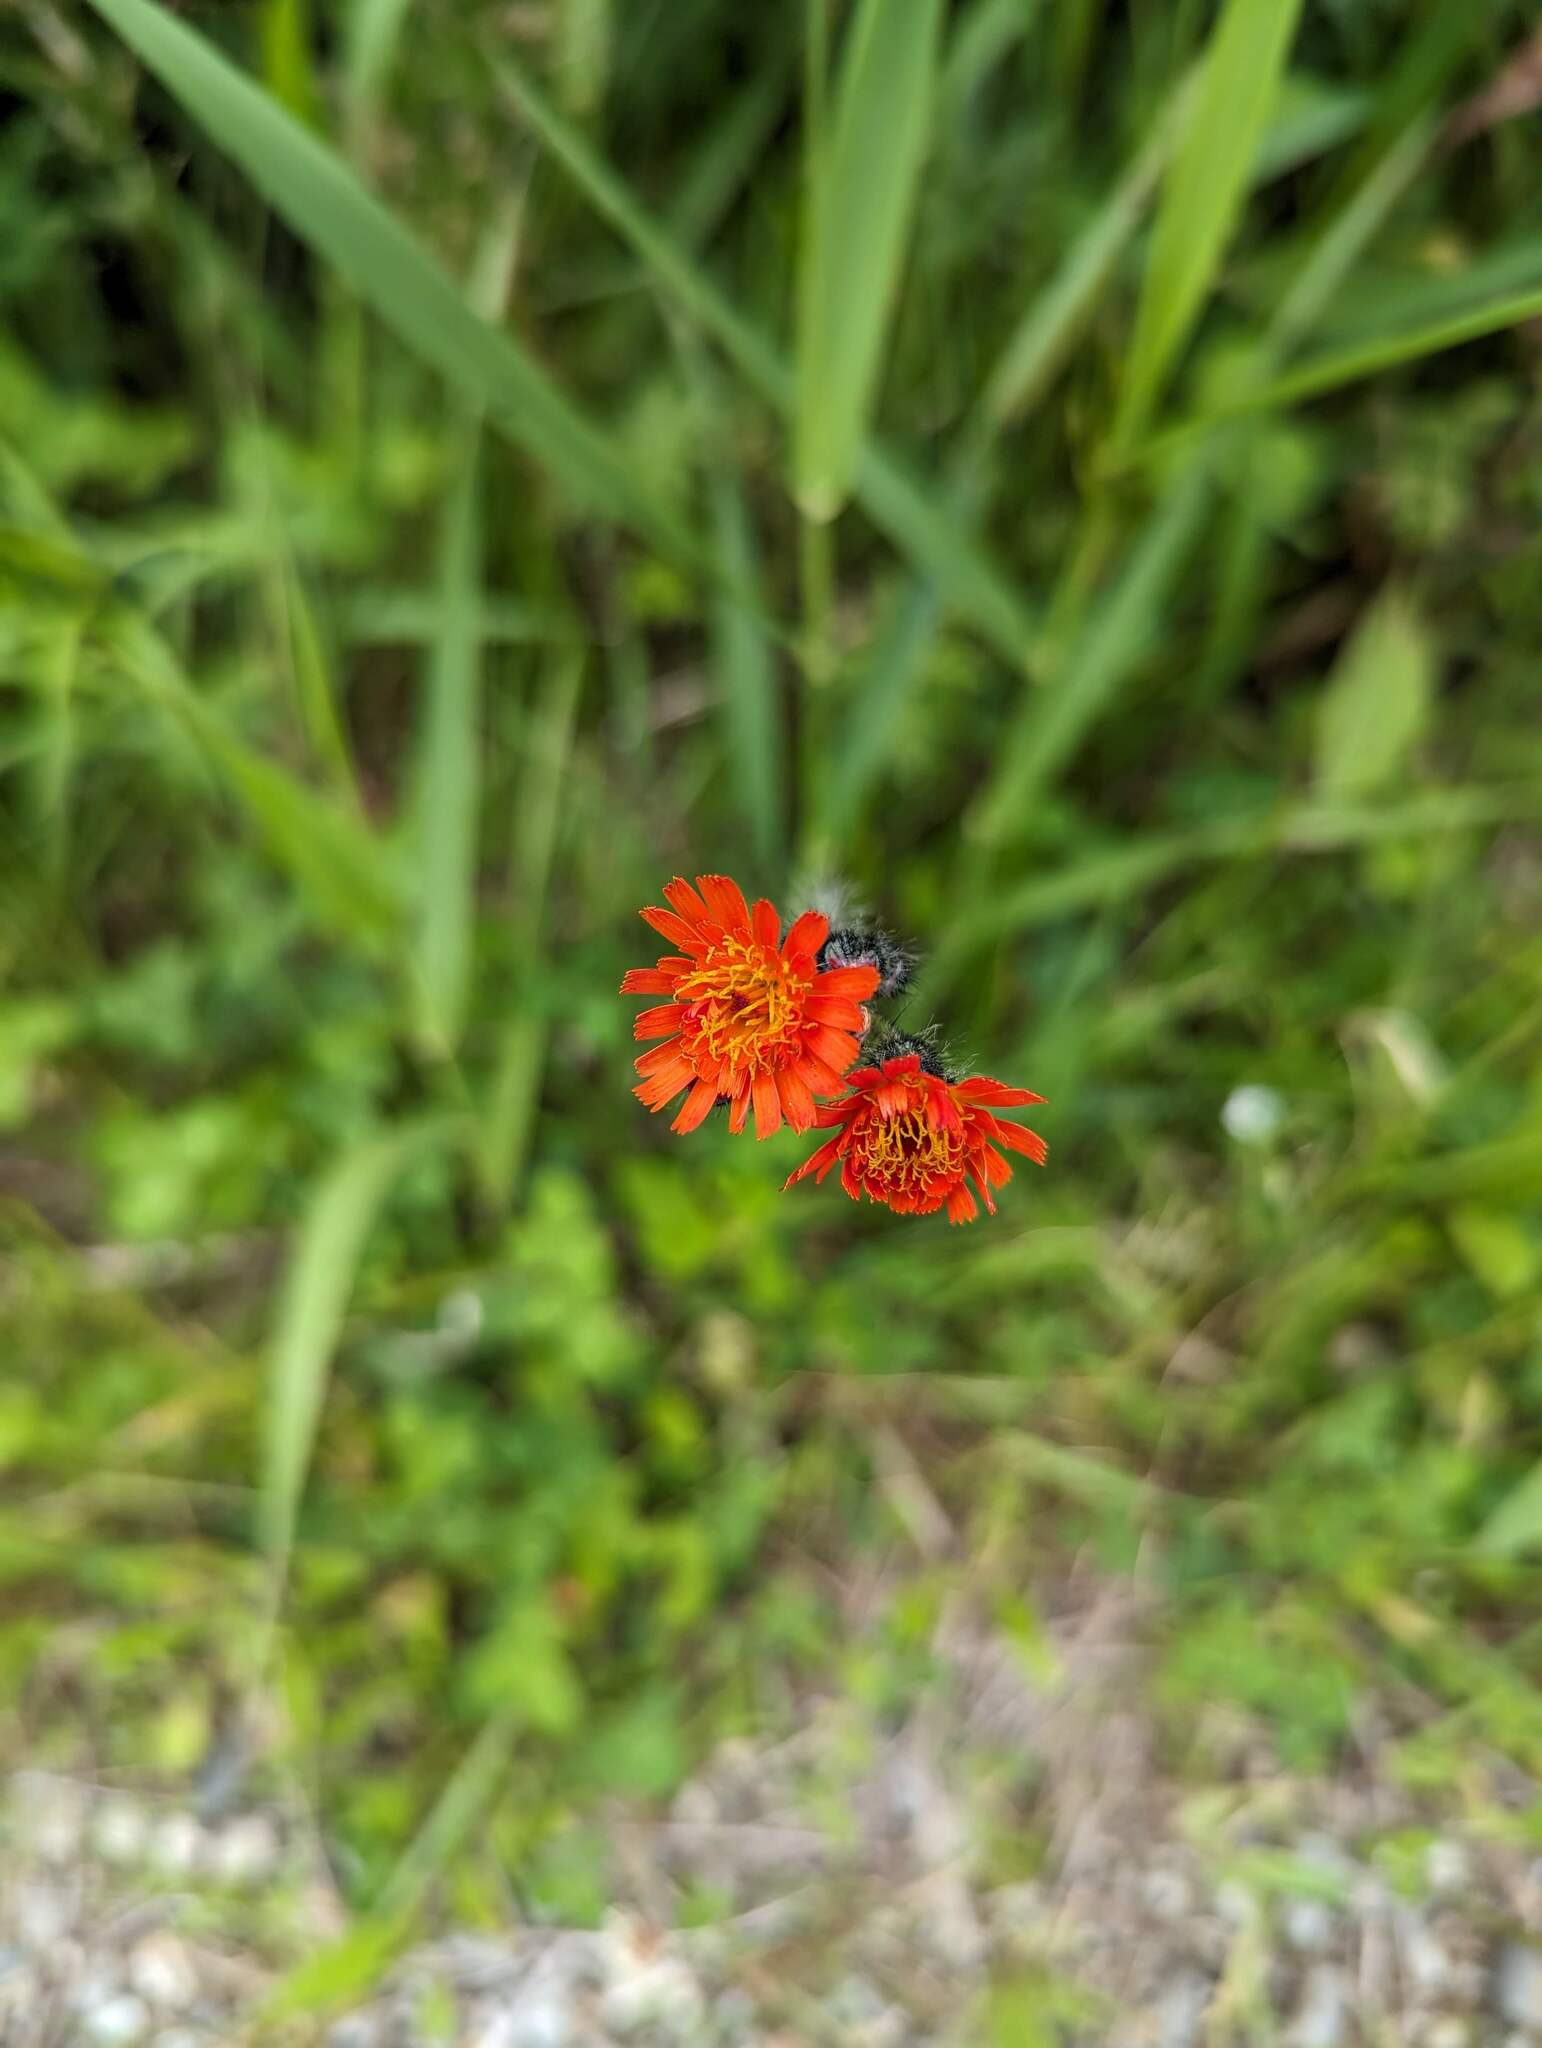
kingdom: Plantae
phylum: Tracheophyta
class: Magnoliopsida
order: Asterales
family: Asteraceae
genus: Pilosella
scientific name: Pilosella aurantiaca
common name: Fox-and-cubs
